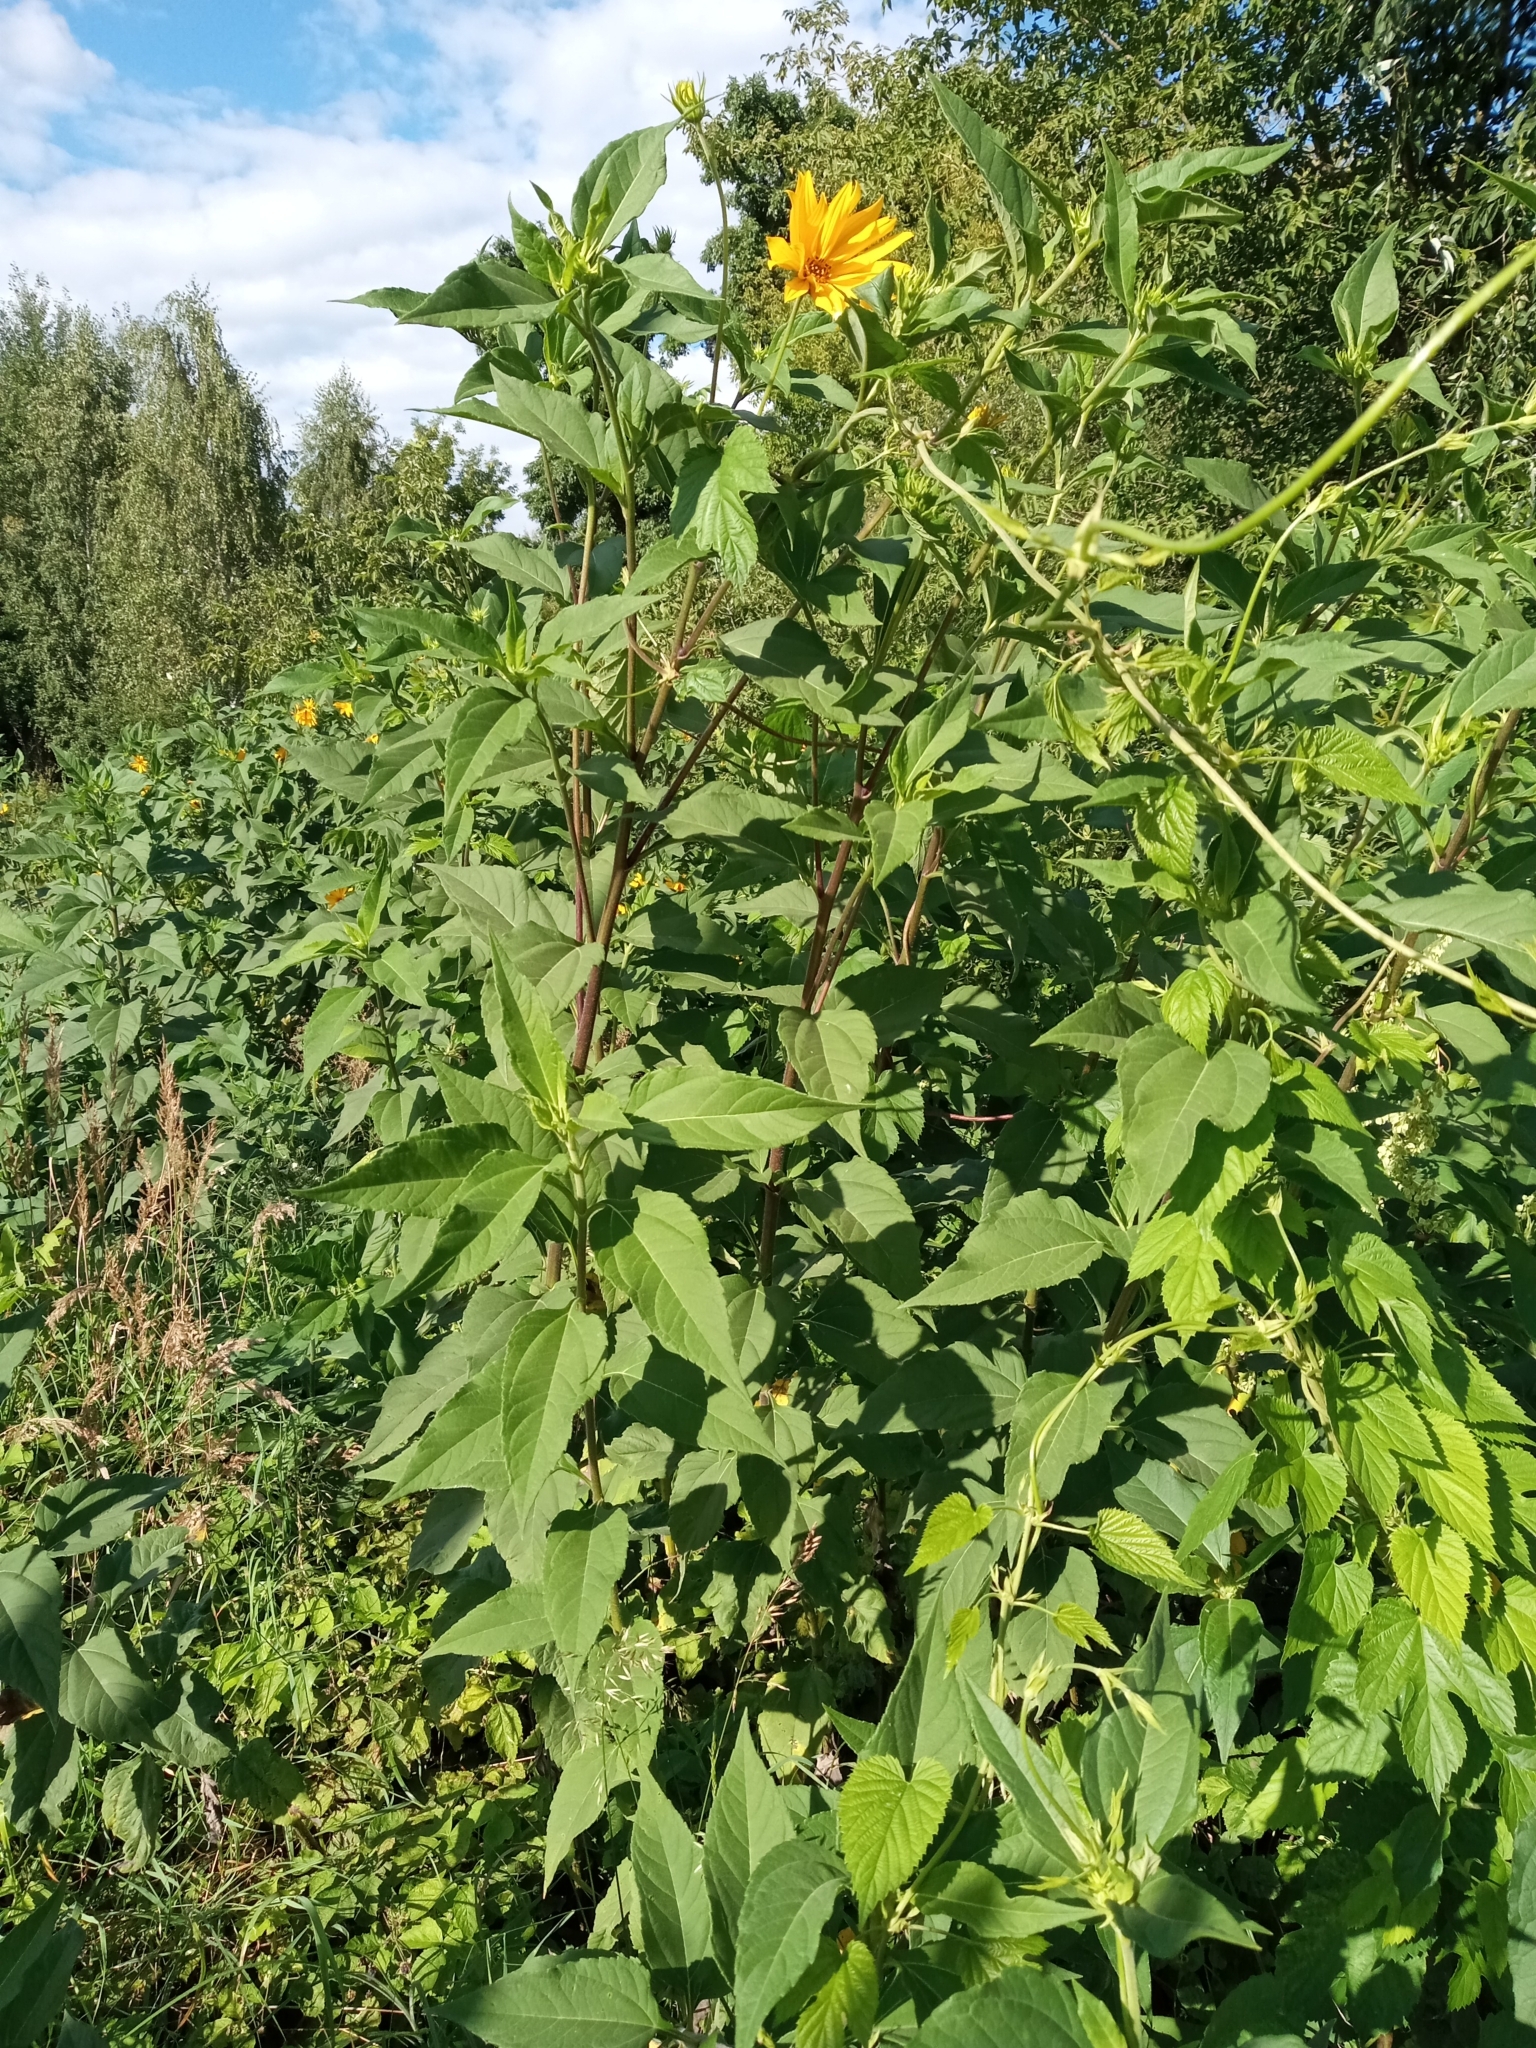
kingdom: Plantae
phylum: Tracheophyta
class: Magnoliopsida
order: Asterales
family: Asteraceae
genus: Helianthus
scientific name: Helianthus tuberosus
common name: Jerusalem artichoke
